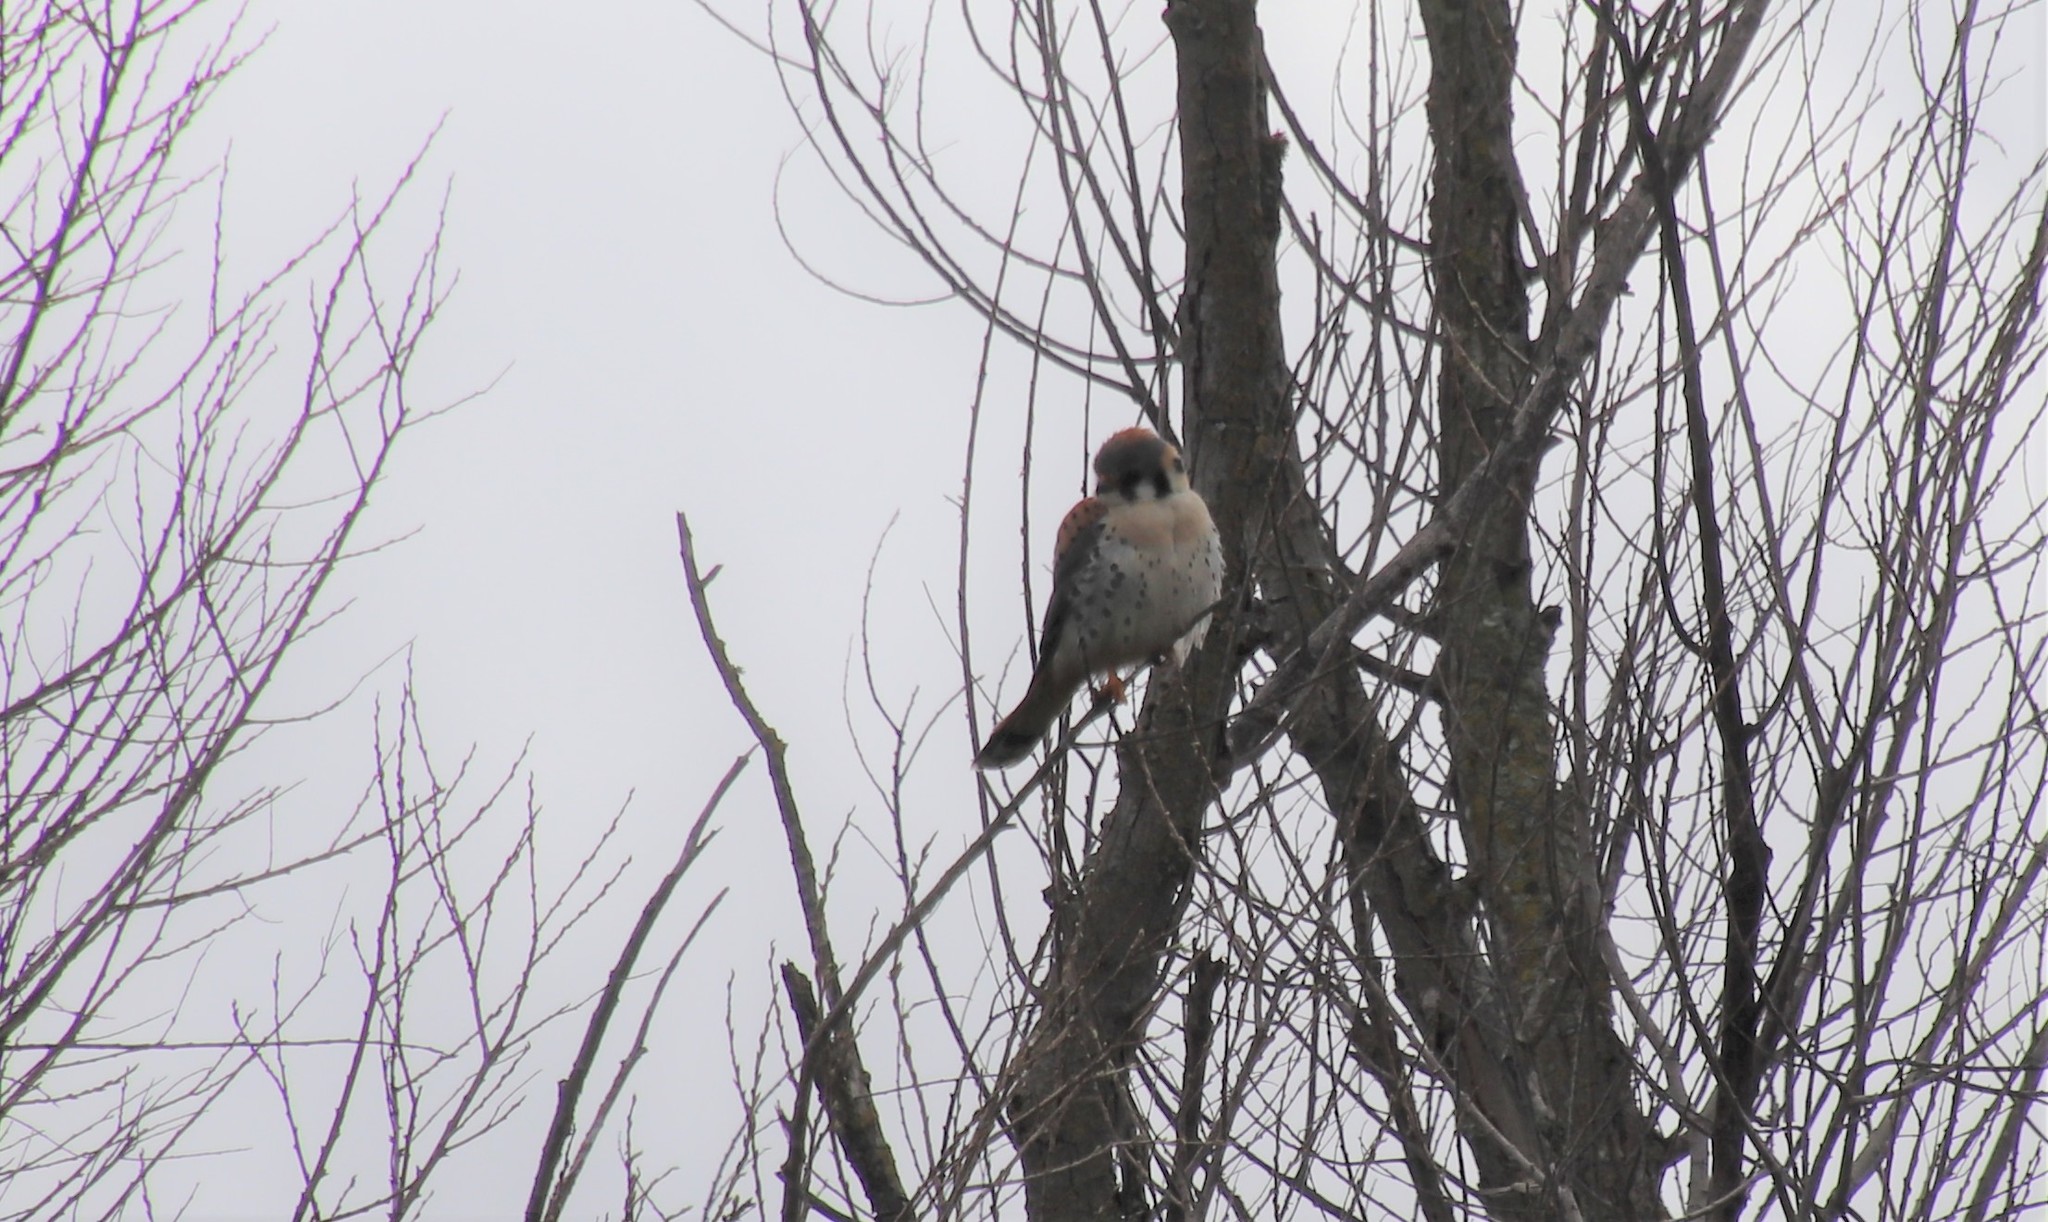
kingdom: Animalia
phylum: Chordata
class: Aves
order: Falconiformes
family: Falconidae
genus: Falco
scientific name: Falco sparverius
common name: American kestrel
